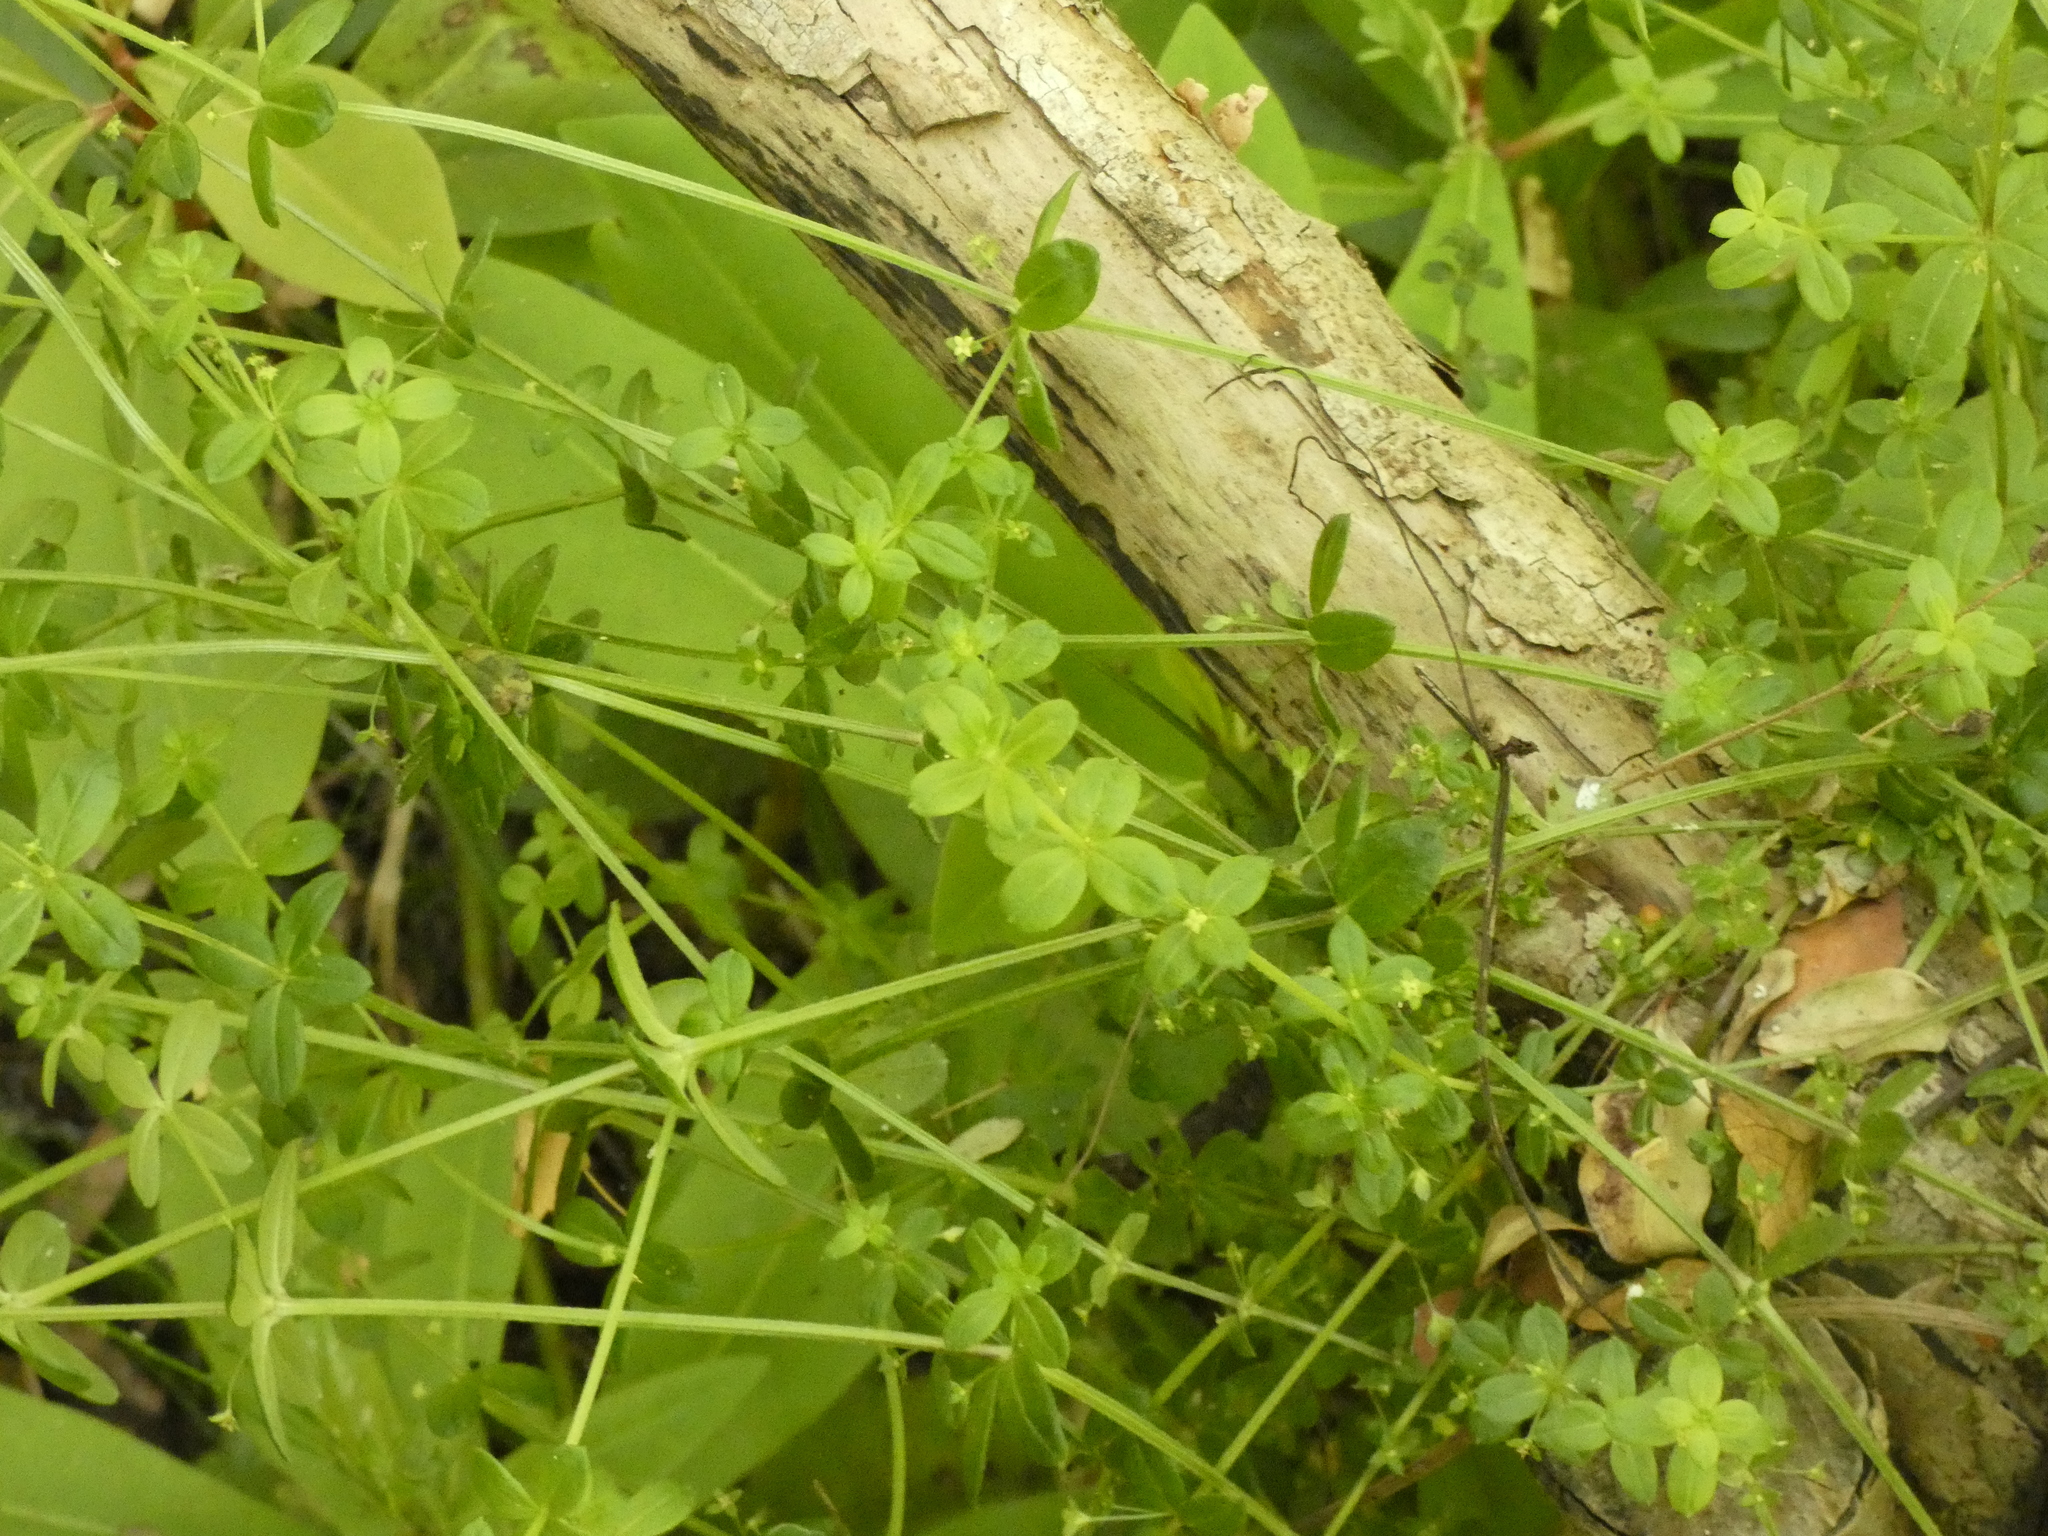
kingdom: Plantae
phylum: Tracheophyta
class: Magnoliopsida
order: Gentianales
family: Rubiaceae
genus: Galium
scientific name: Galium hypocarpium
